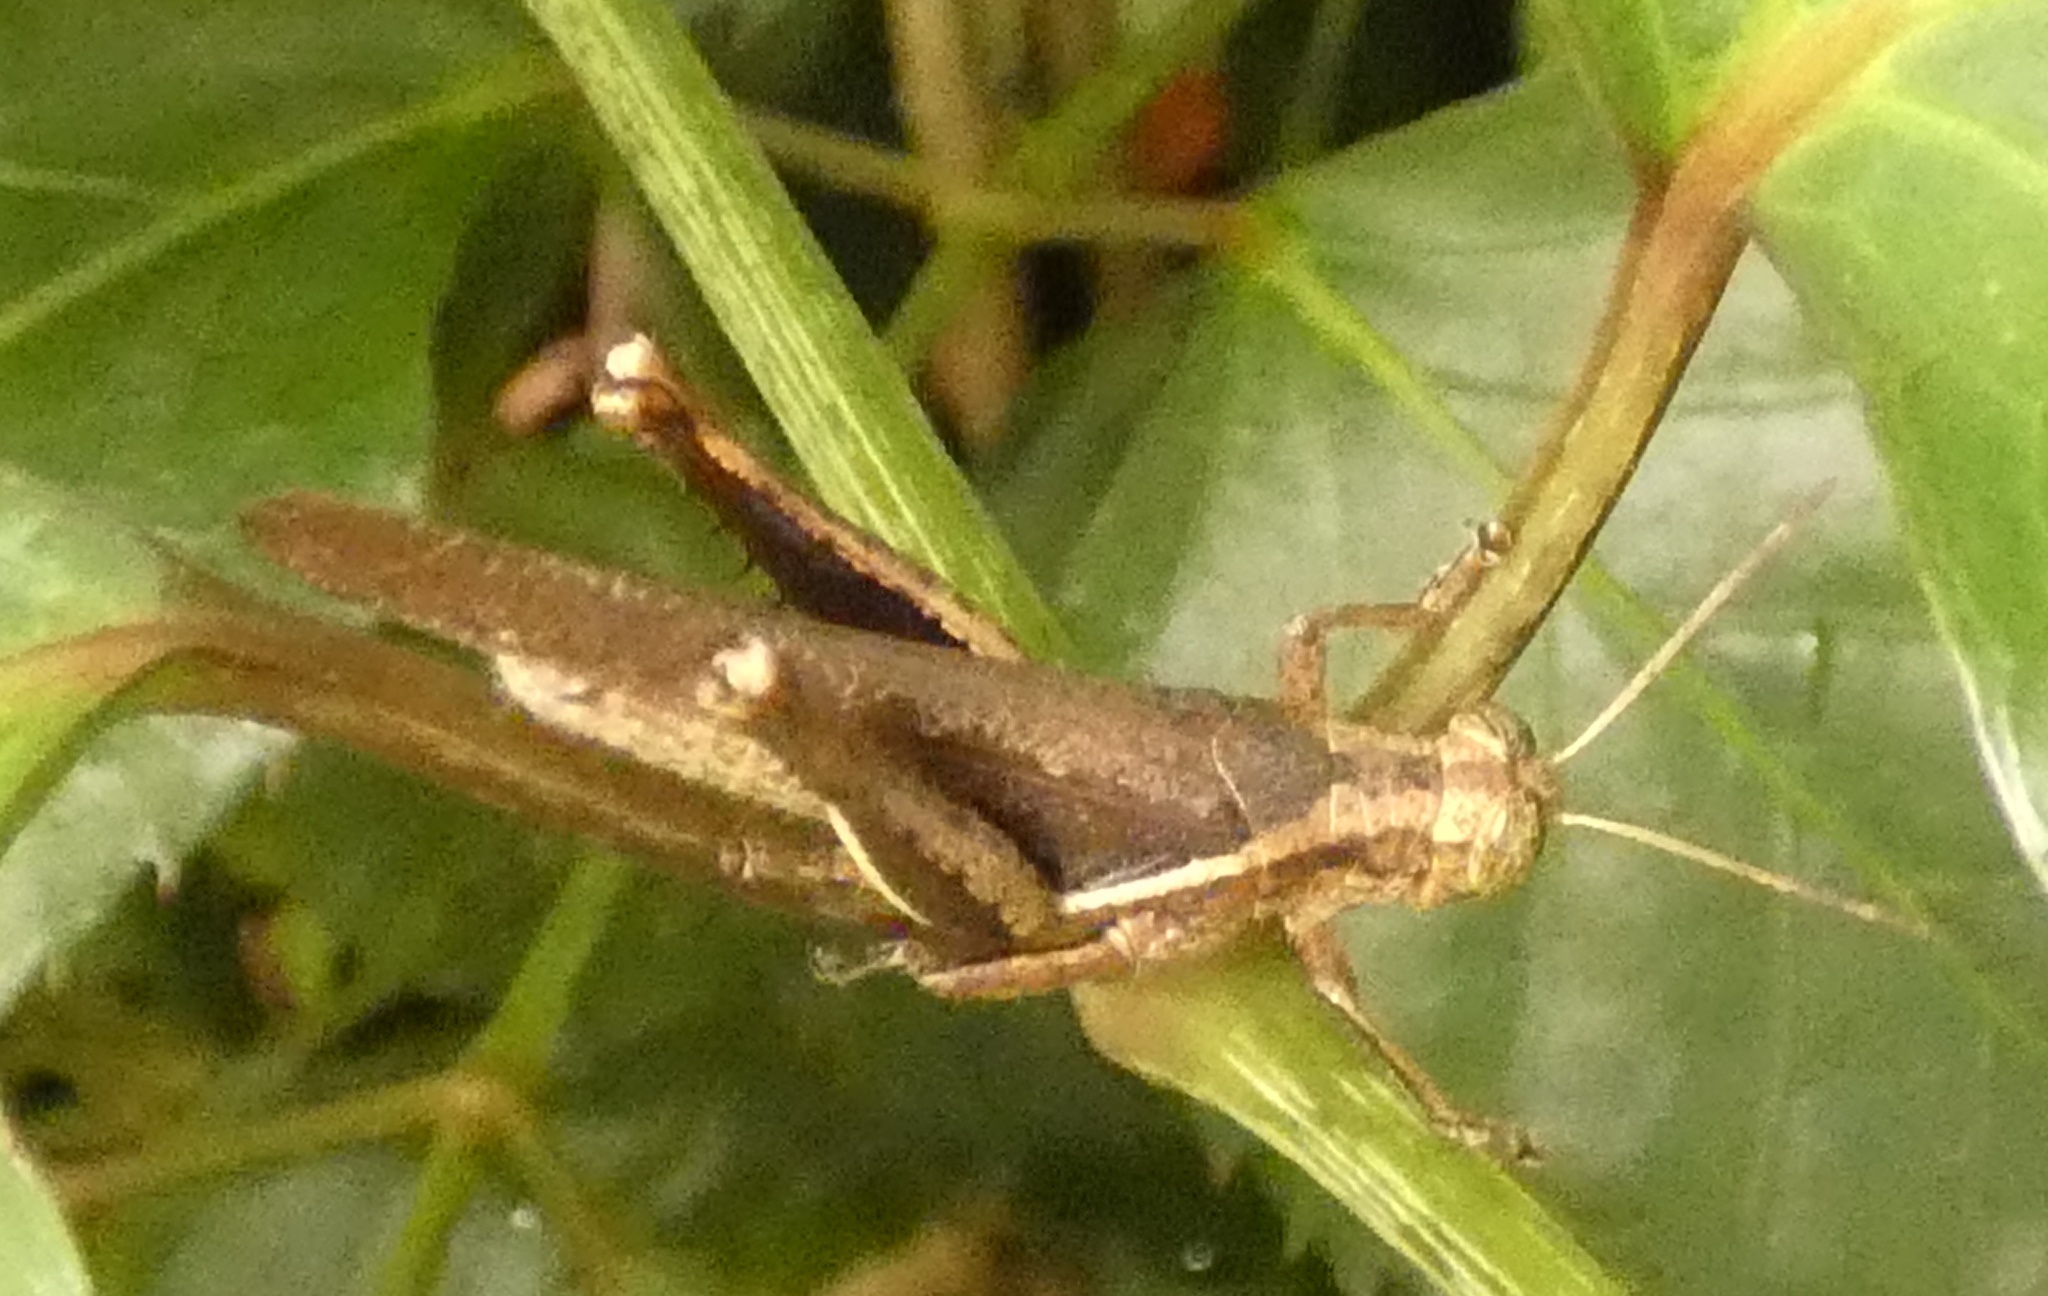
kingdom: Animalia
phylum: Arthropoda
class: Insecta
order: Orthoptera
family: Acrididae
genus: Abracris
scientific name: Abracris flavolineata
